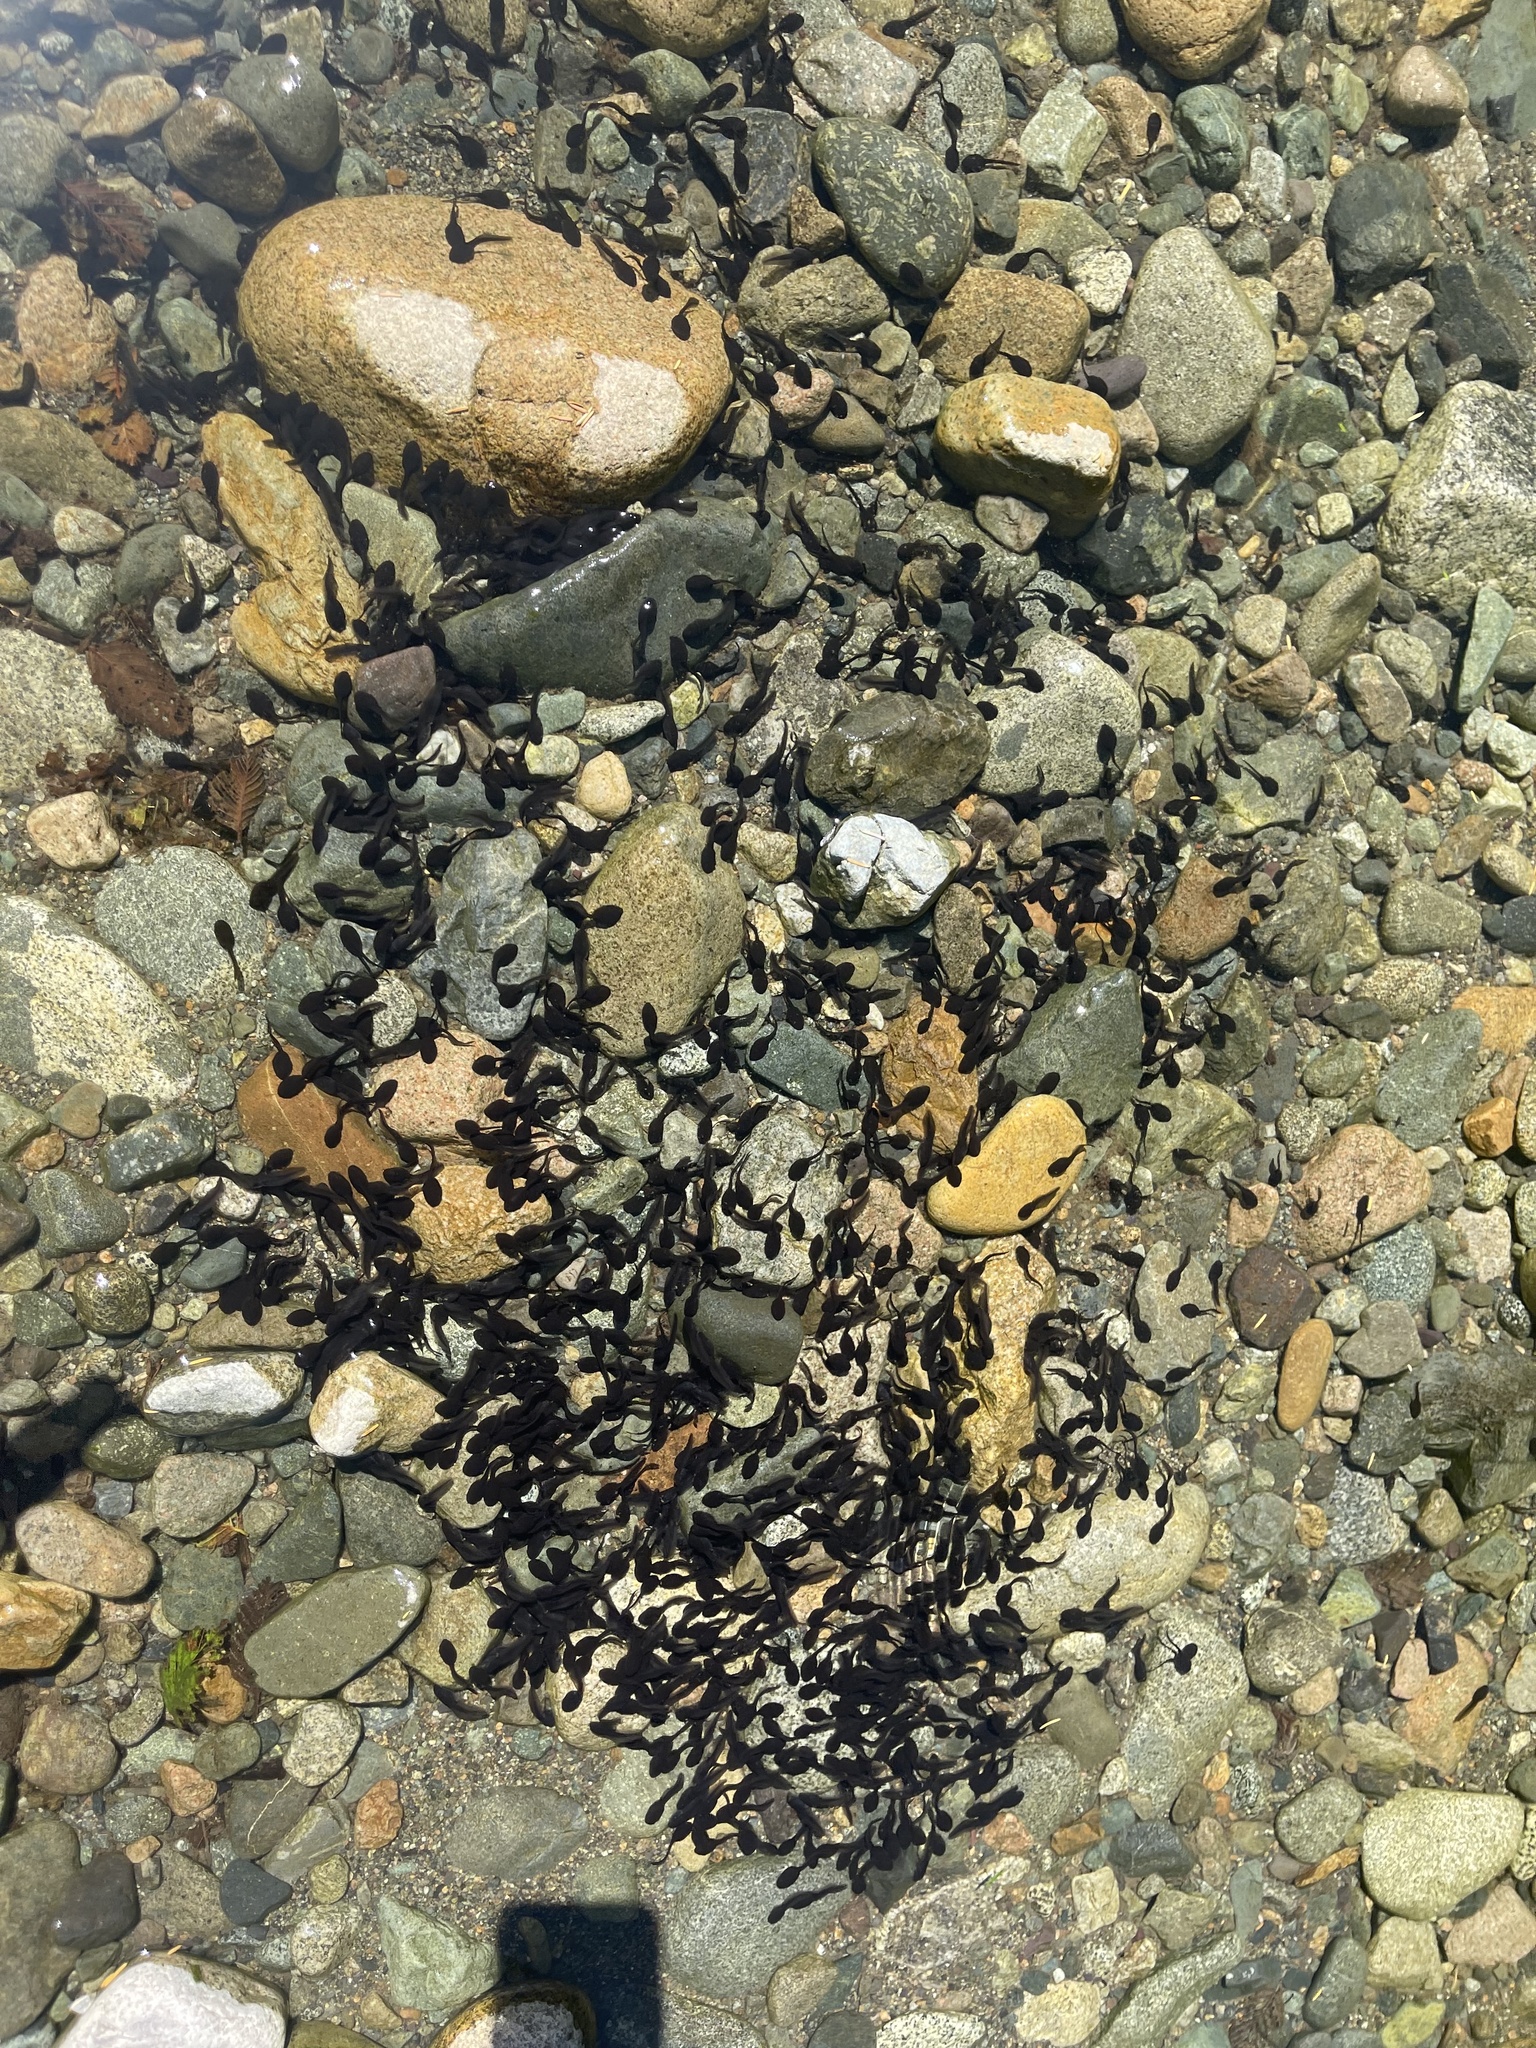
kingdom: Animalia
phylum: Chordata
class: Amphibia
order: Anura
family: Bufonidae
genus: Anaxyrus
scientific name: Anaxyrus boreas
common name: Western toad
